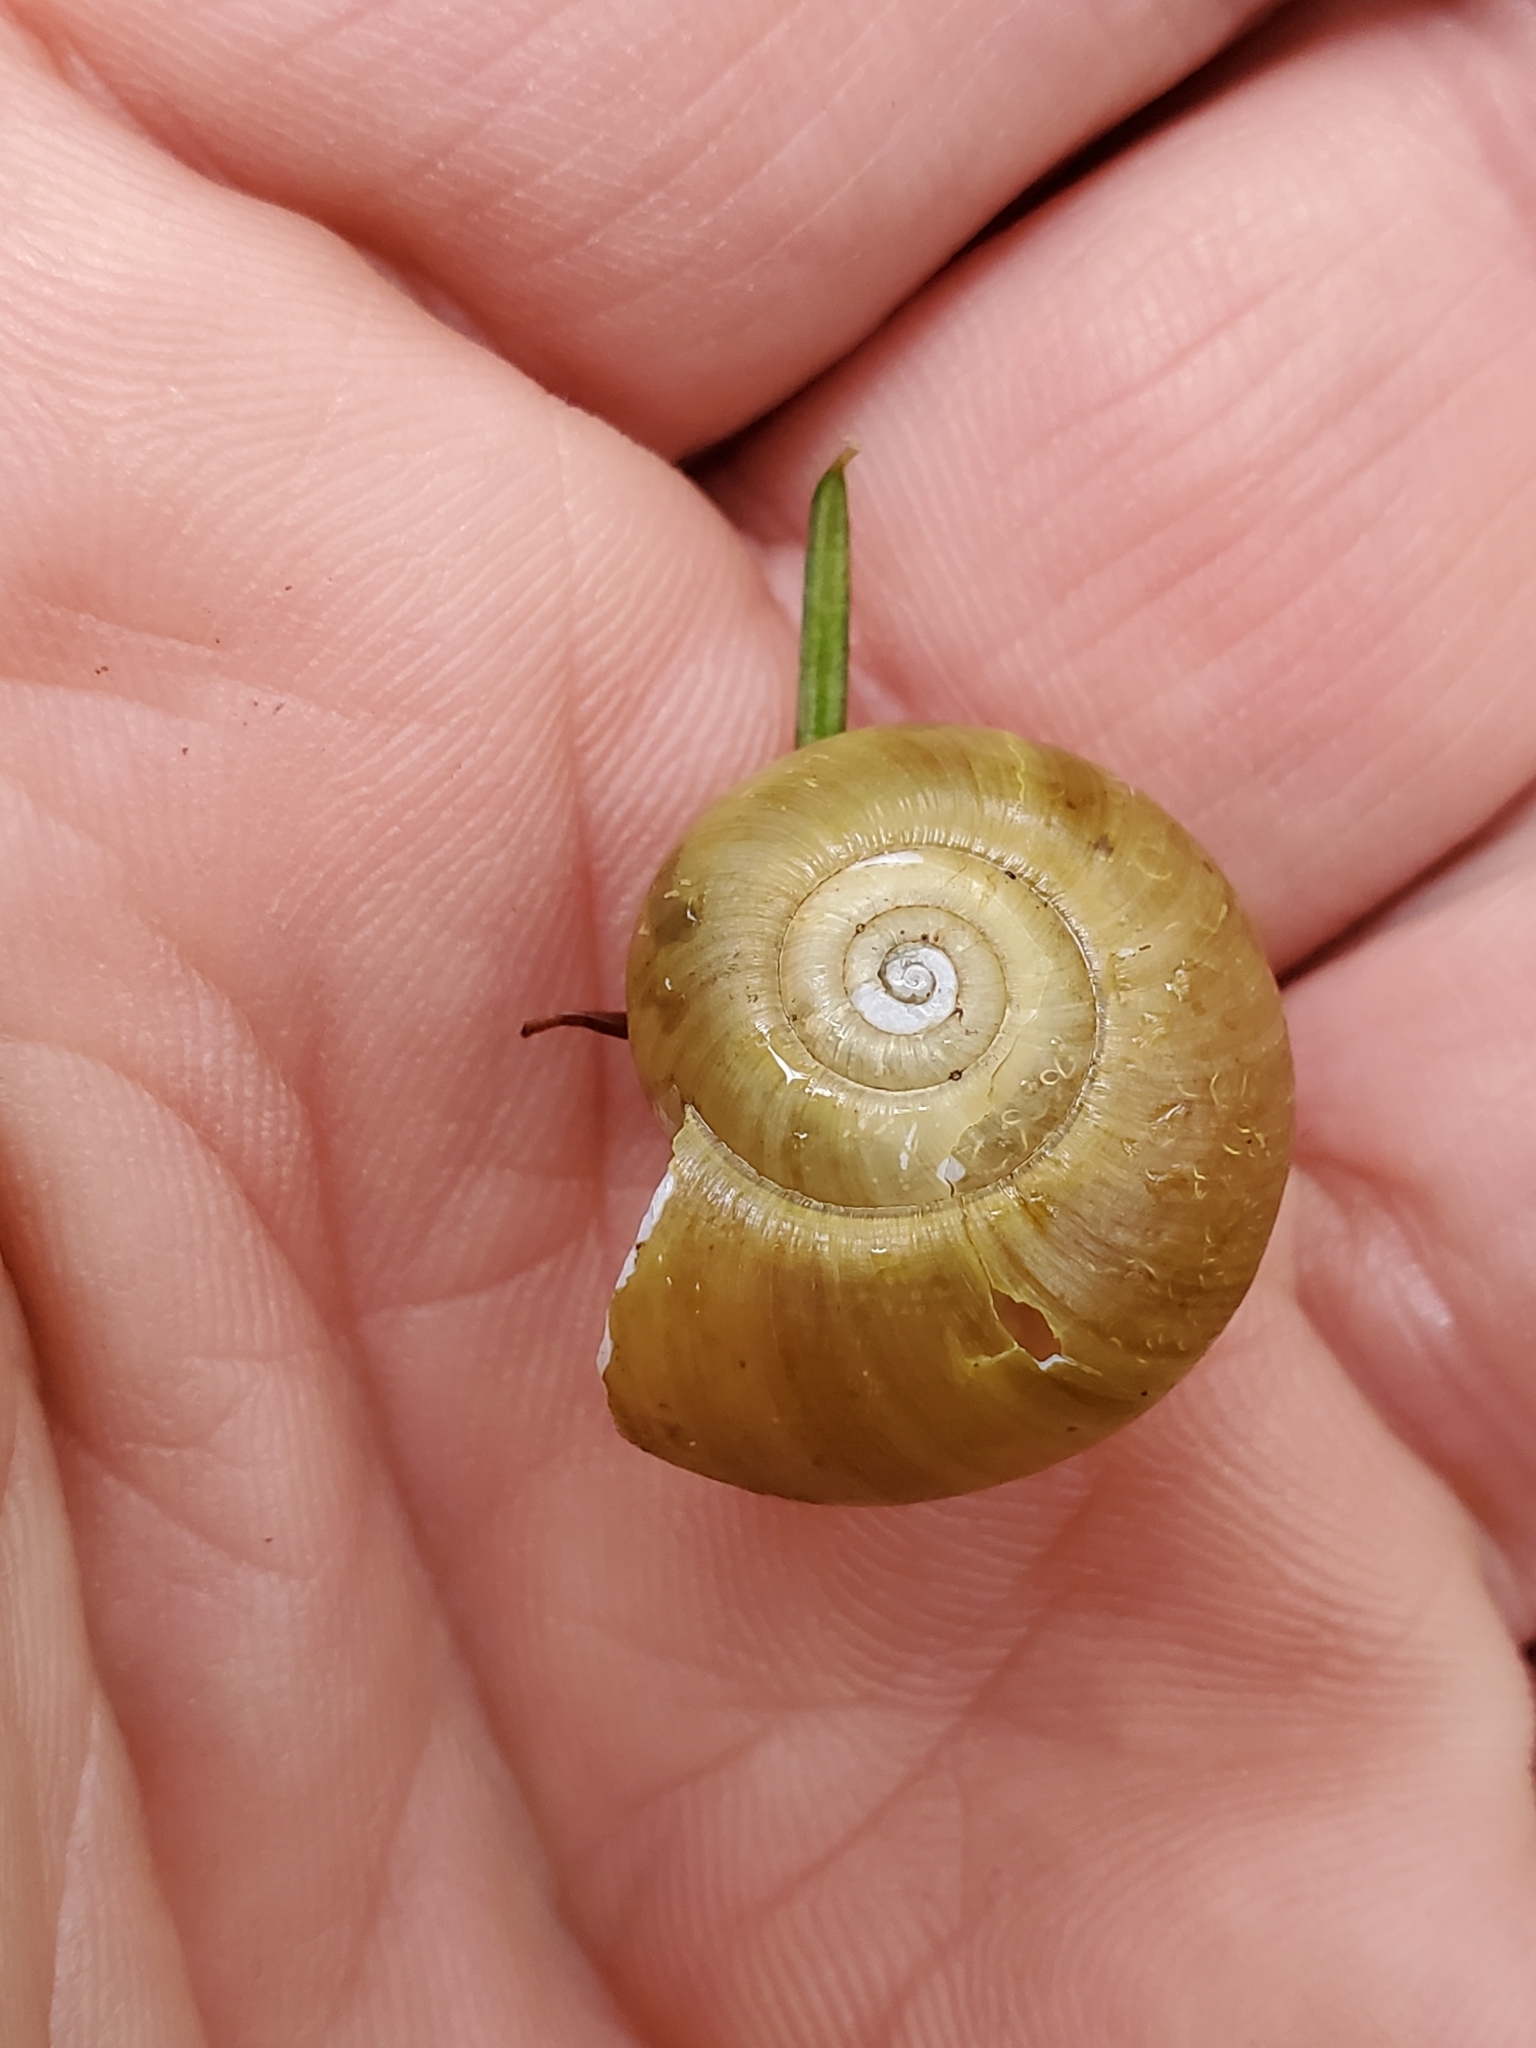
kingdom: Animalia
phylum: Mollusca
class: Gastropoda
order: Stylommatophora
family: Haplotrematidae
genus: Haplotrema
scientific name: Haplotrema vancouverense
